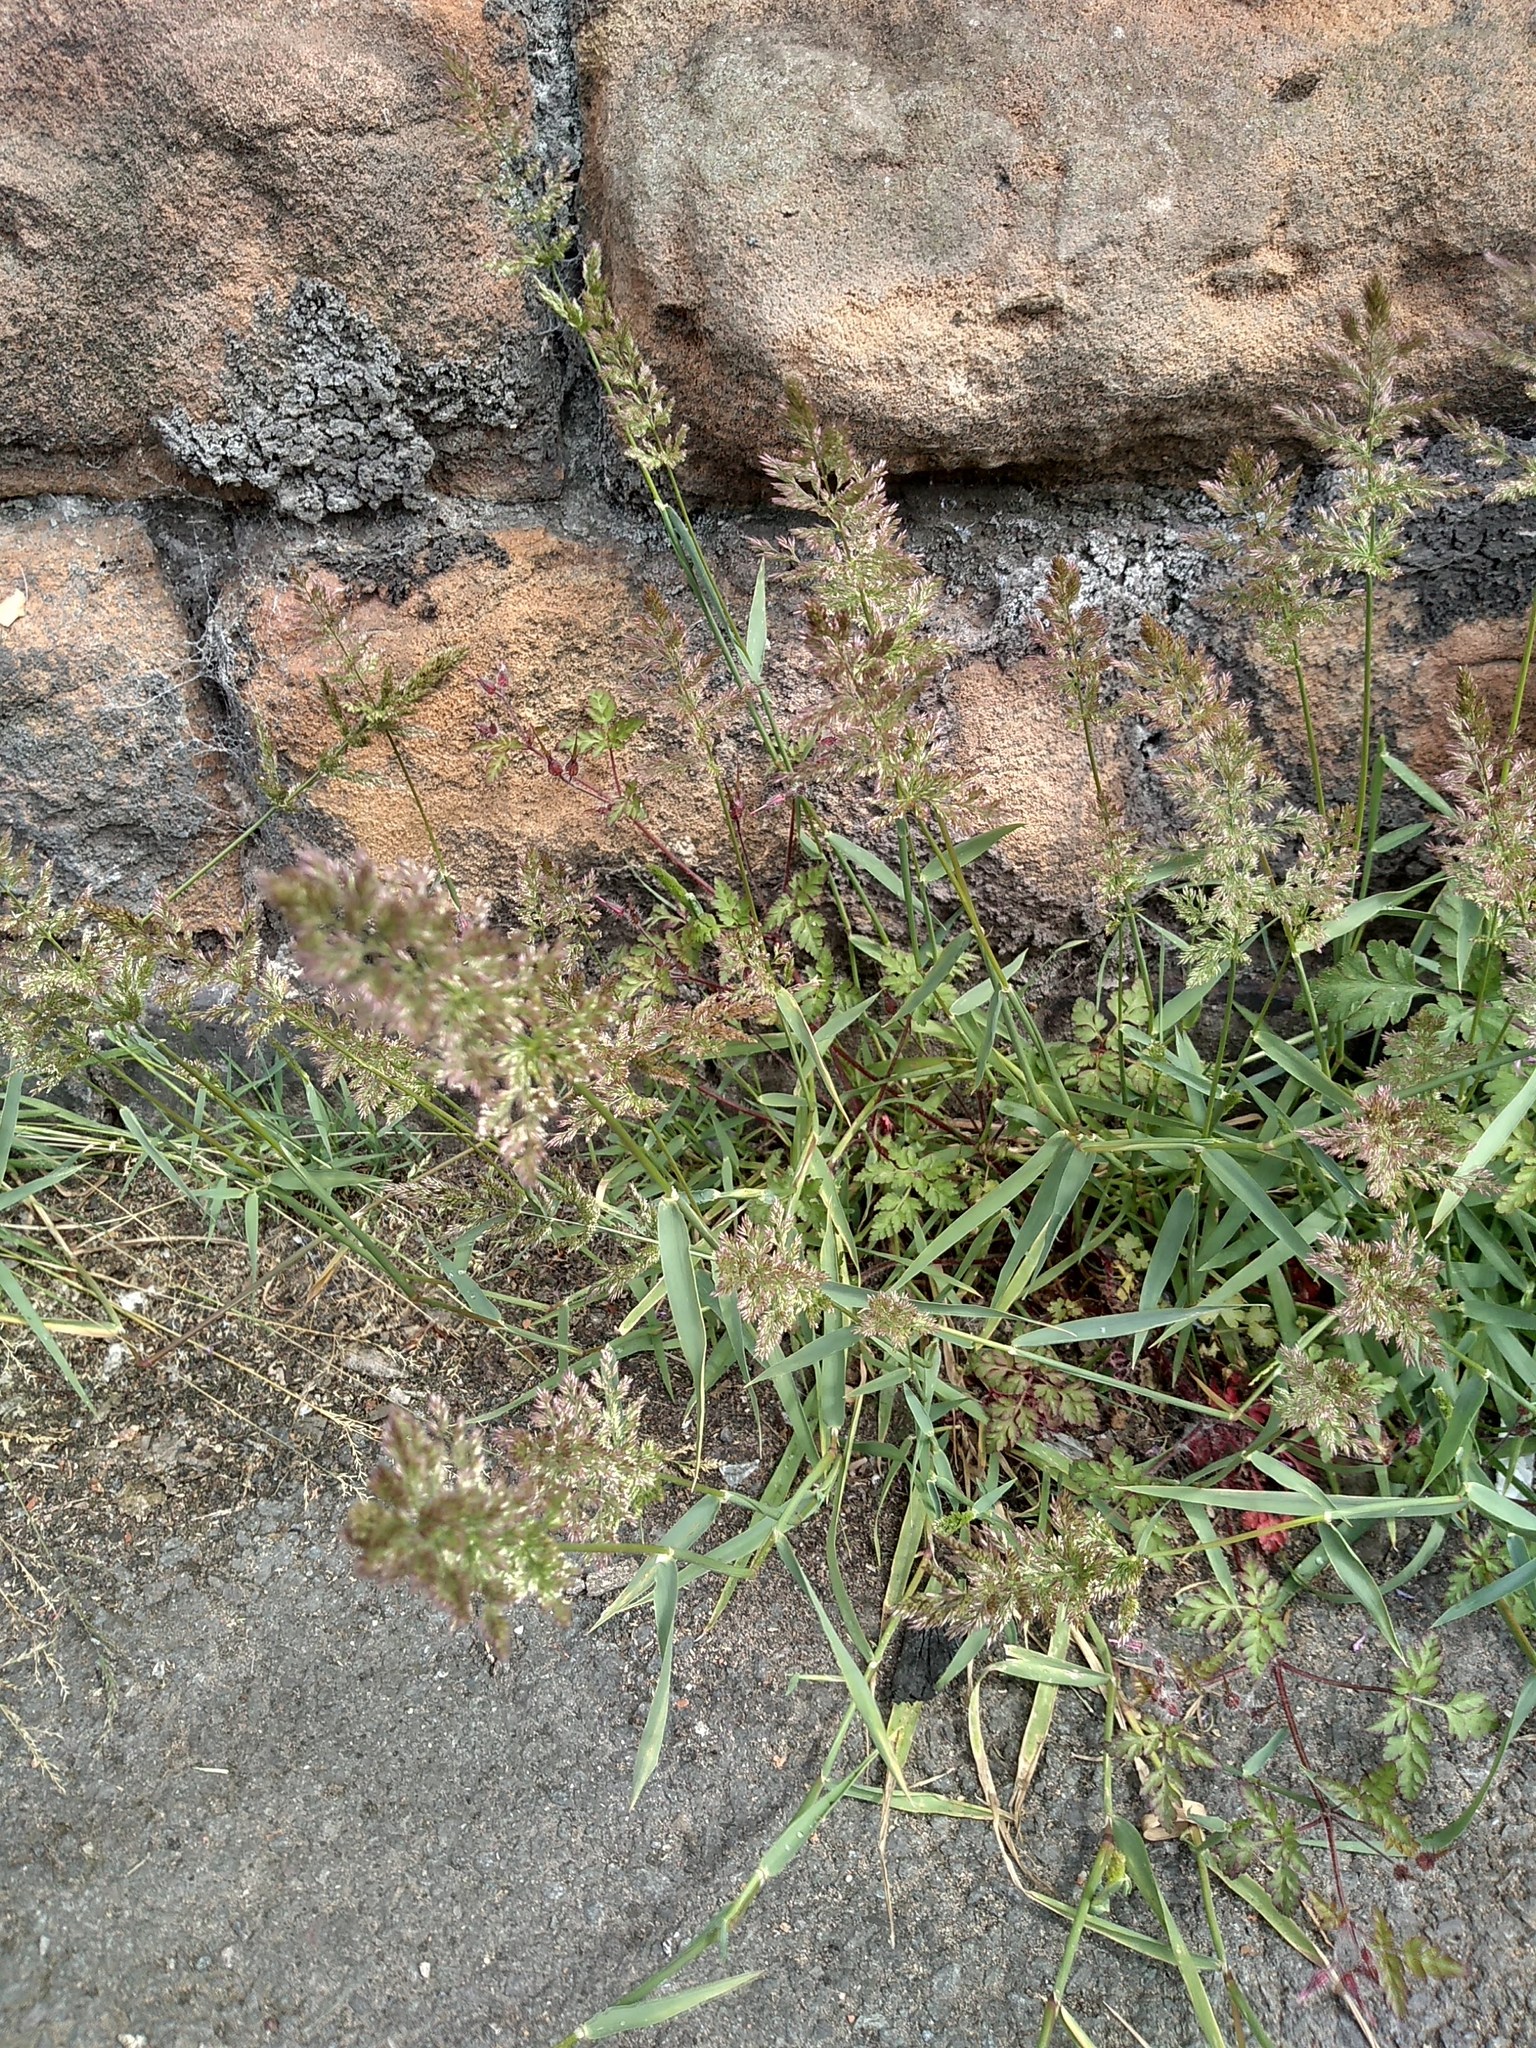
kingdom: Plantae
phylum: Tracheophyta
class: Liliopsida
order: Poales
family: Poaceae
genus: Polypogon
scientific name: Polypogon viridis
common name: Water bent
